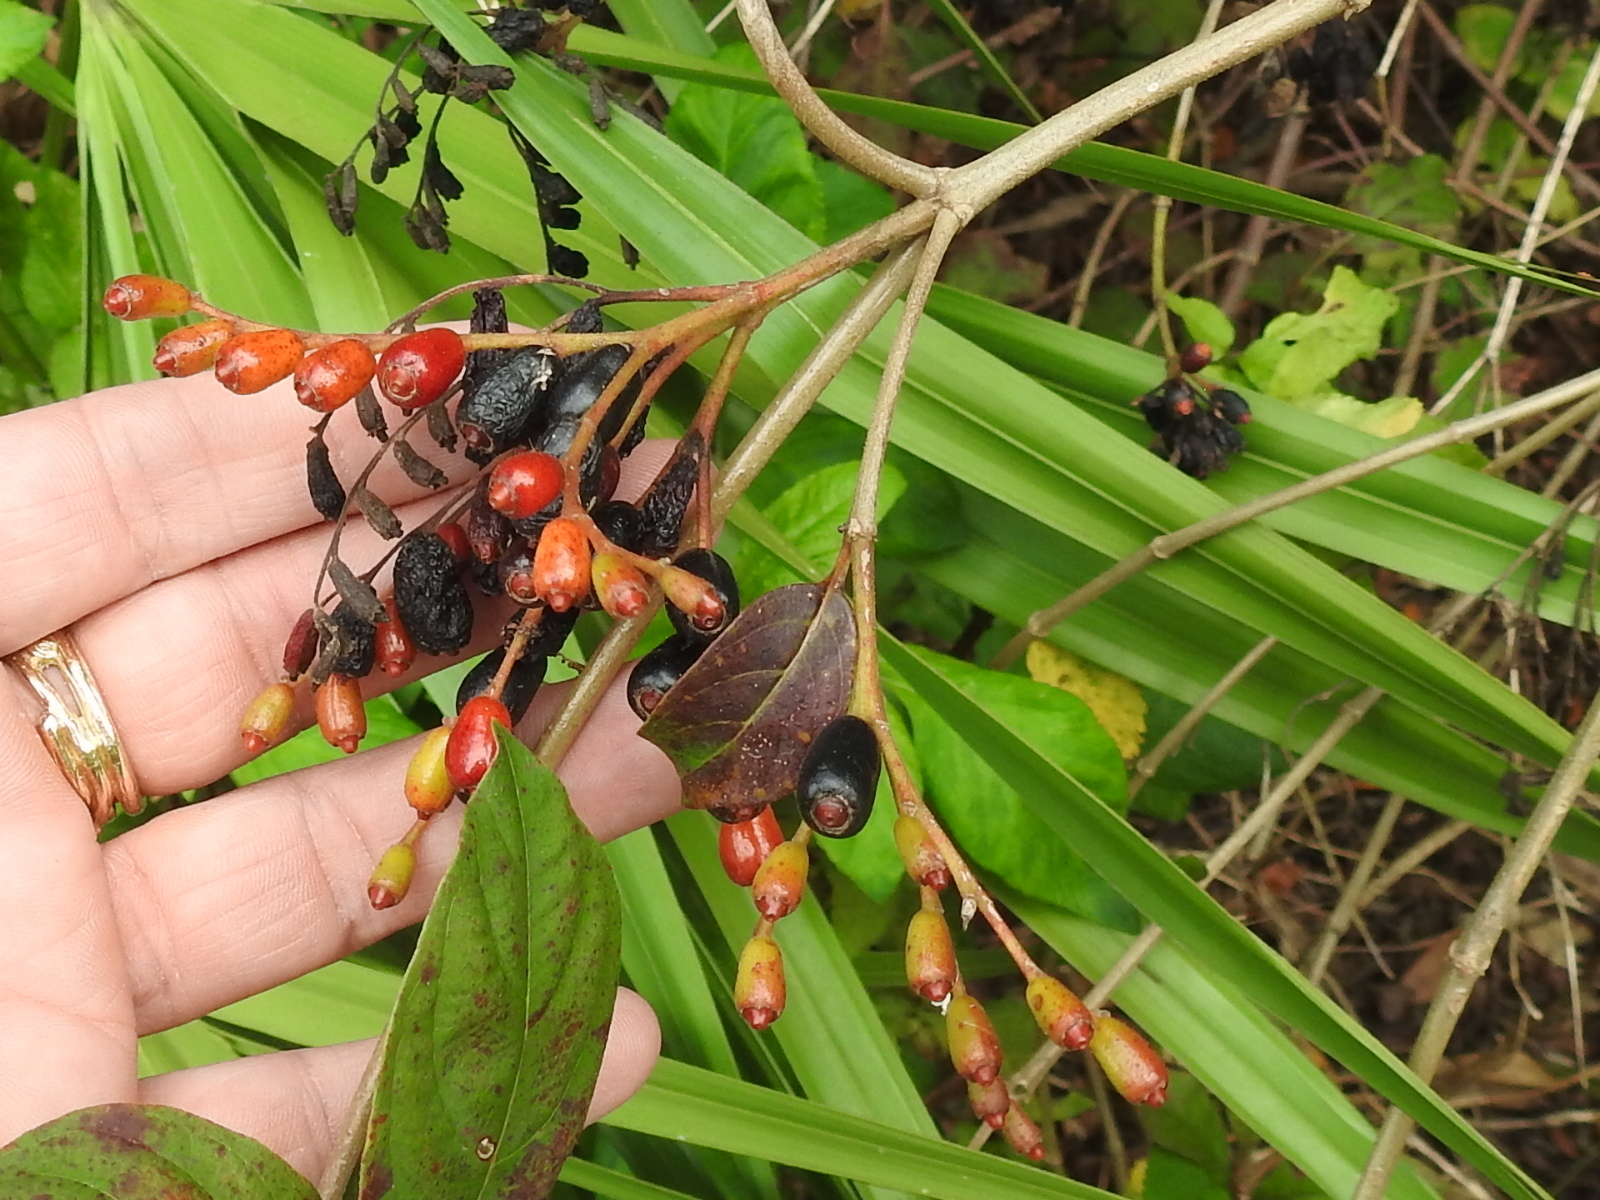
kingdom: Plantae
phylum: Tracheophyta
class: Magnoliopsida
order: Gentianales
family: Rubiaceae
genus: Hamelia
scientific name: Hamelia patens
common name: Redhead
